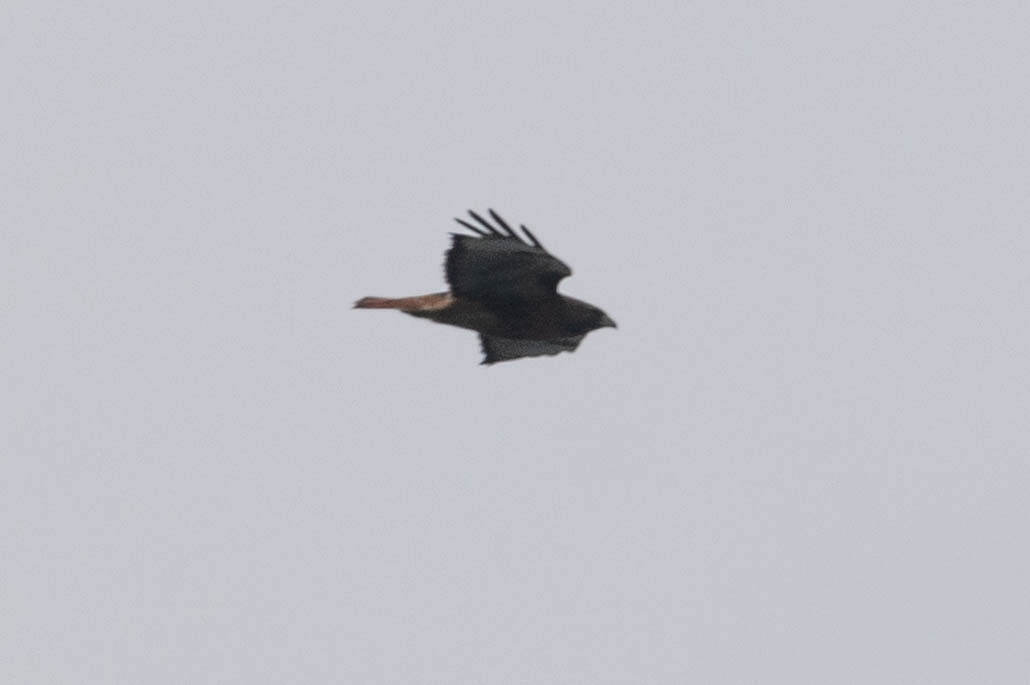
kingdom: Animalia
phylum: Chordata
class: Aves
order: Accipitriformes
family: Accipitridae
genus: Buteo
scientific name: Buteo jamaicensis
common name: Red-tailed hawk
